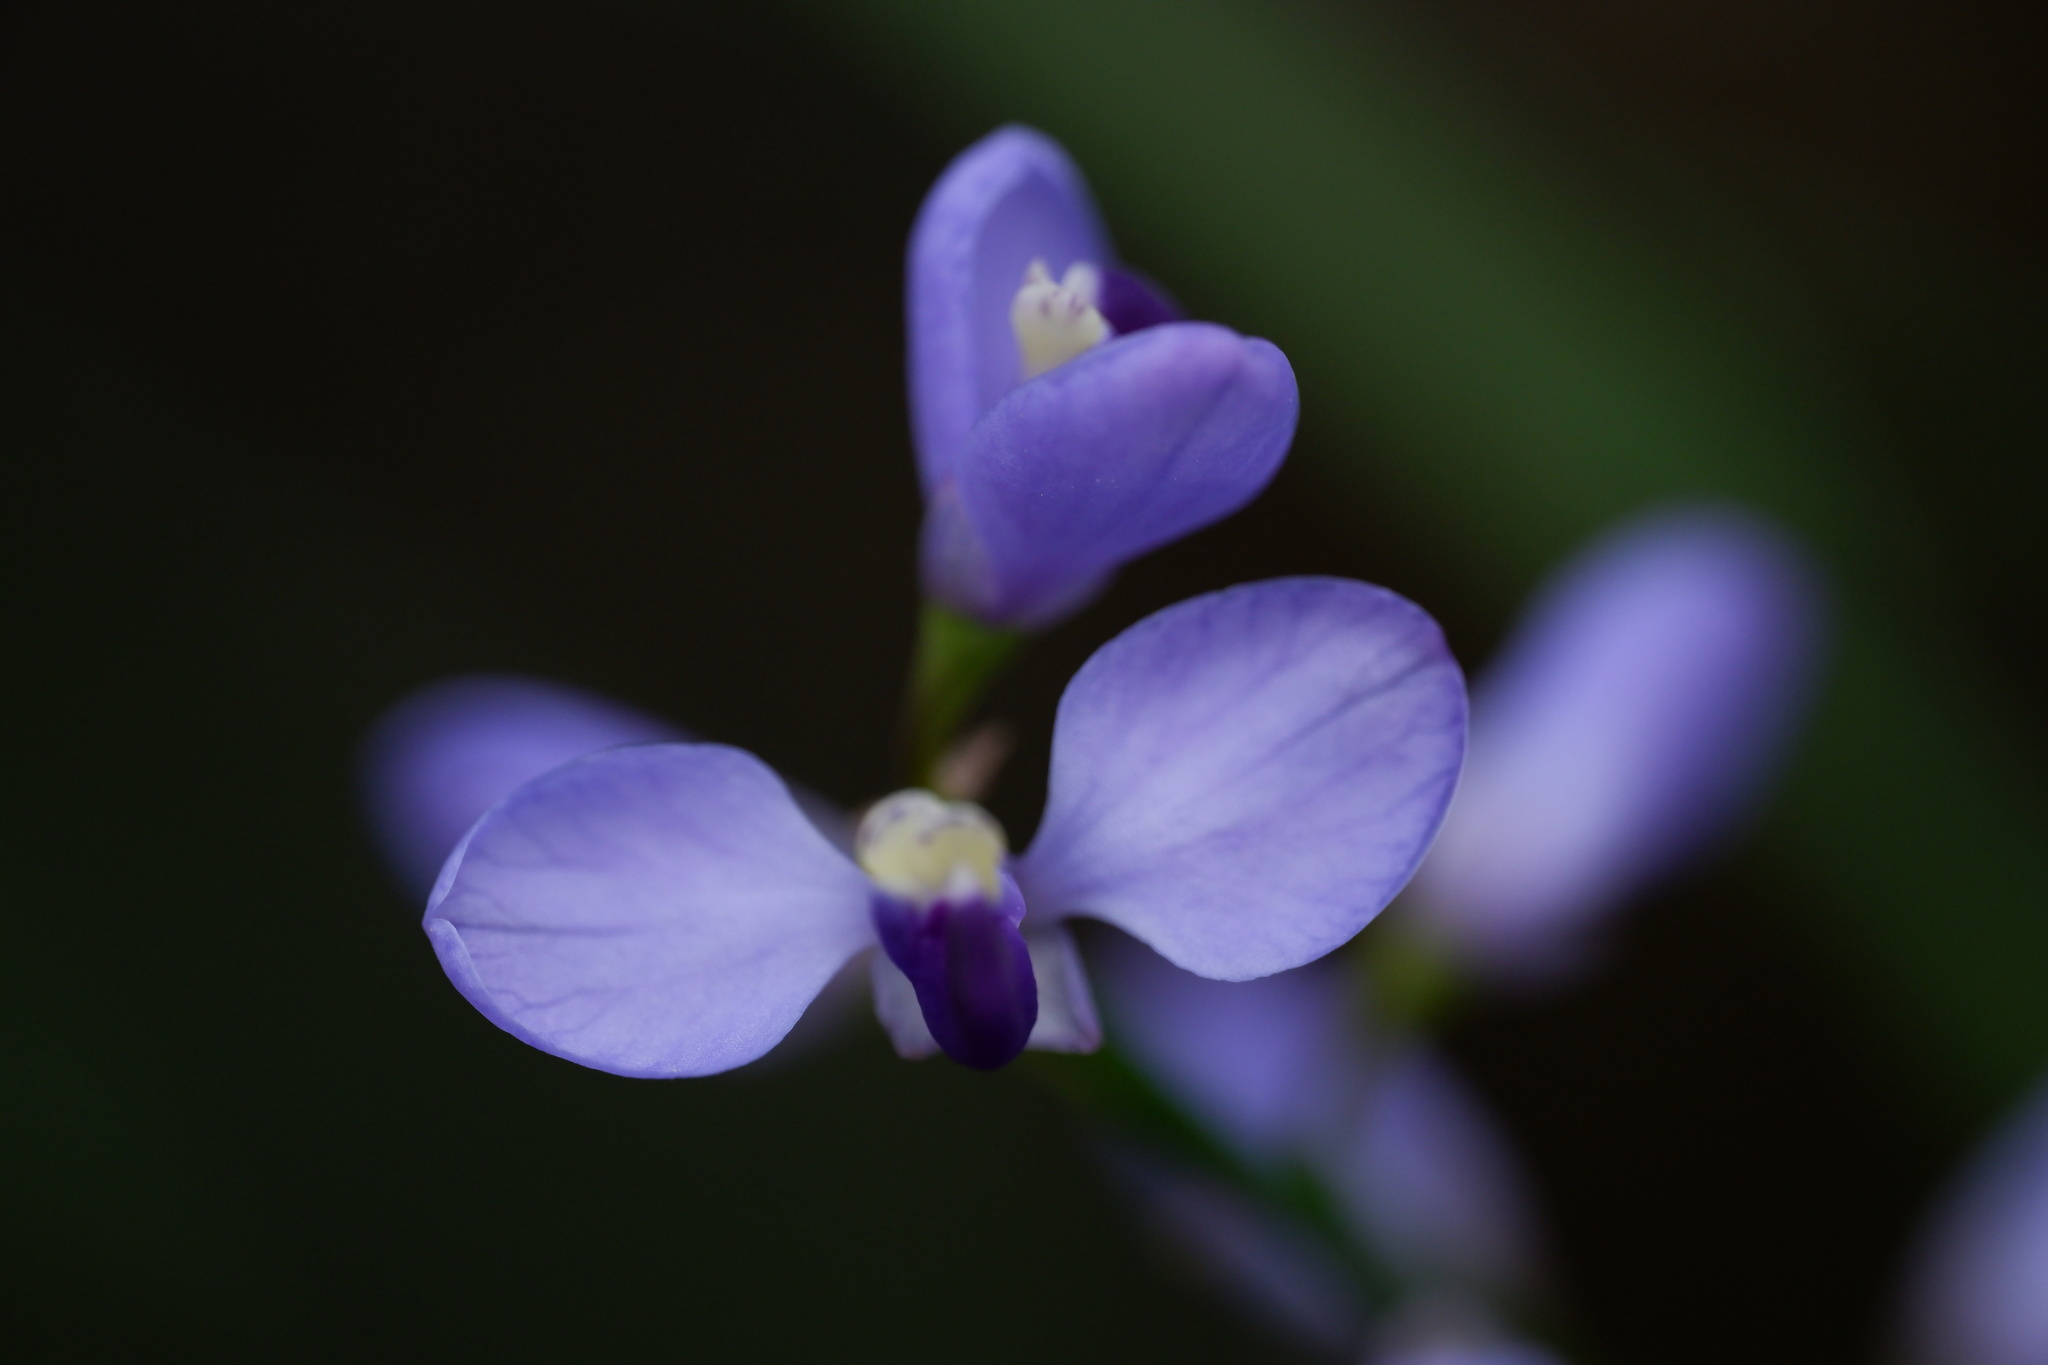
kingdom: Plantae
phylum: Tracheophyta
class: Magnoliopsida
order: Fabales
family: Polygalaceae
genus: Comesperma
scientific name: Comesperma volubile
